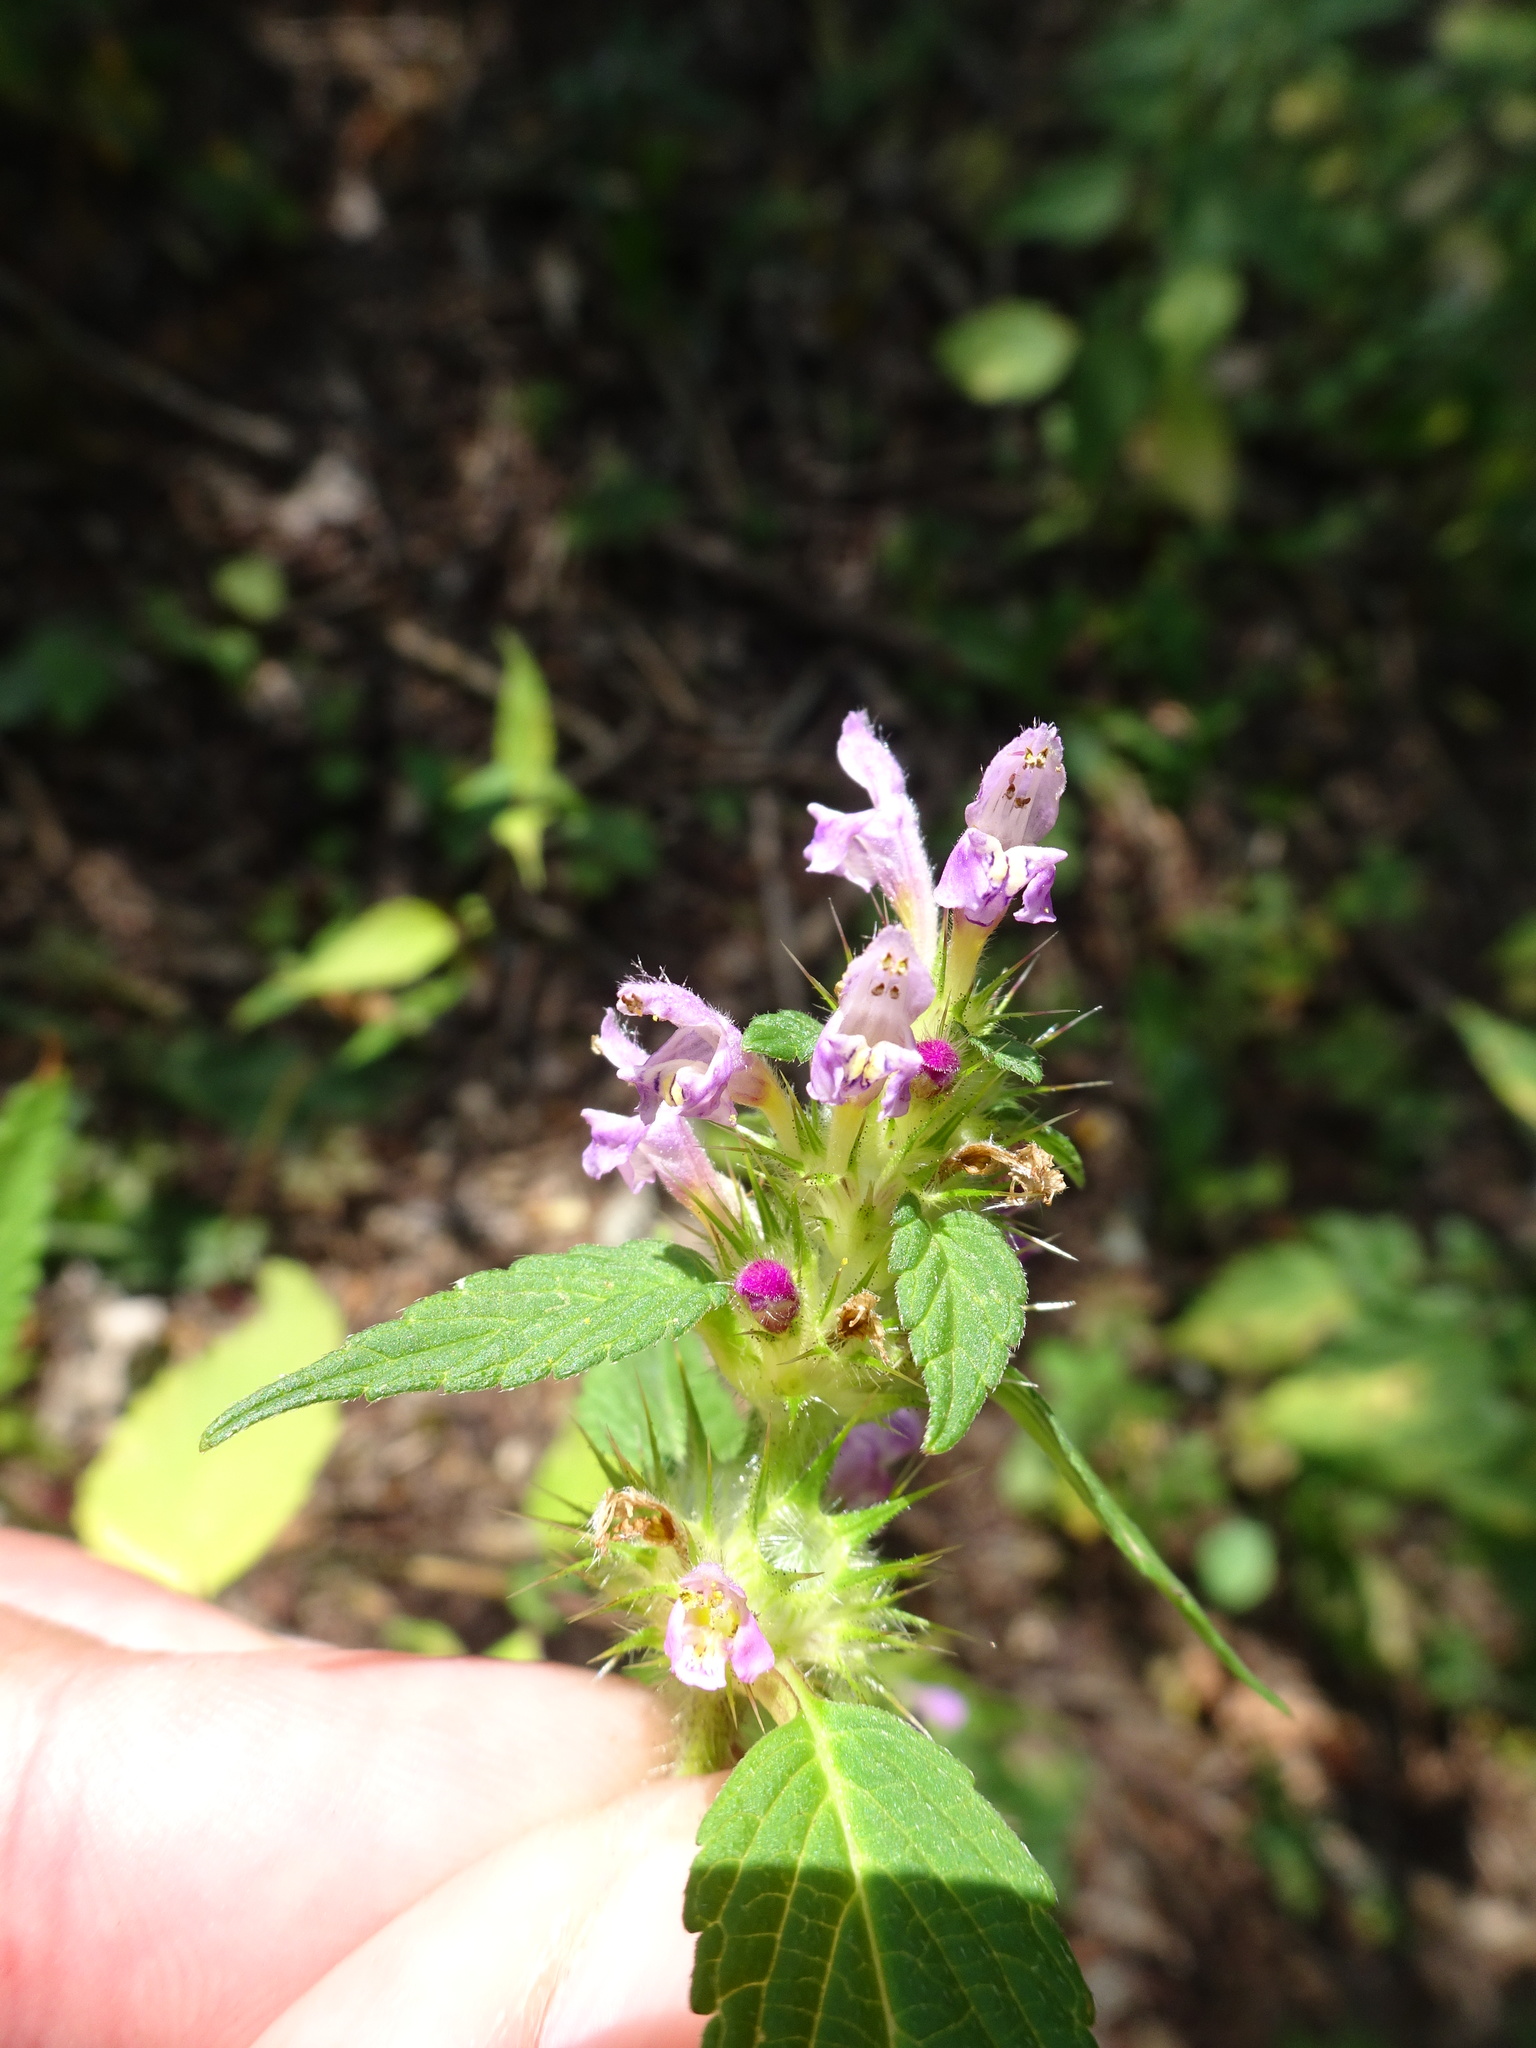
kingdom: Plantae
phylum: Tracheophyta
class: Magnoliopsida
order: Lamiales
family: Lamiaceae
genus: Galeopsis
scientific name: Galeopsis tetrahit
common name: Common hemp-nettle
